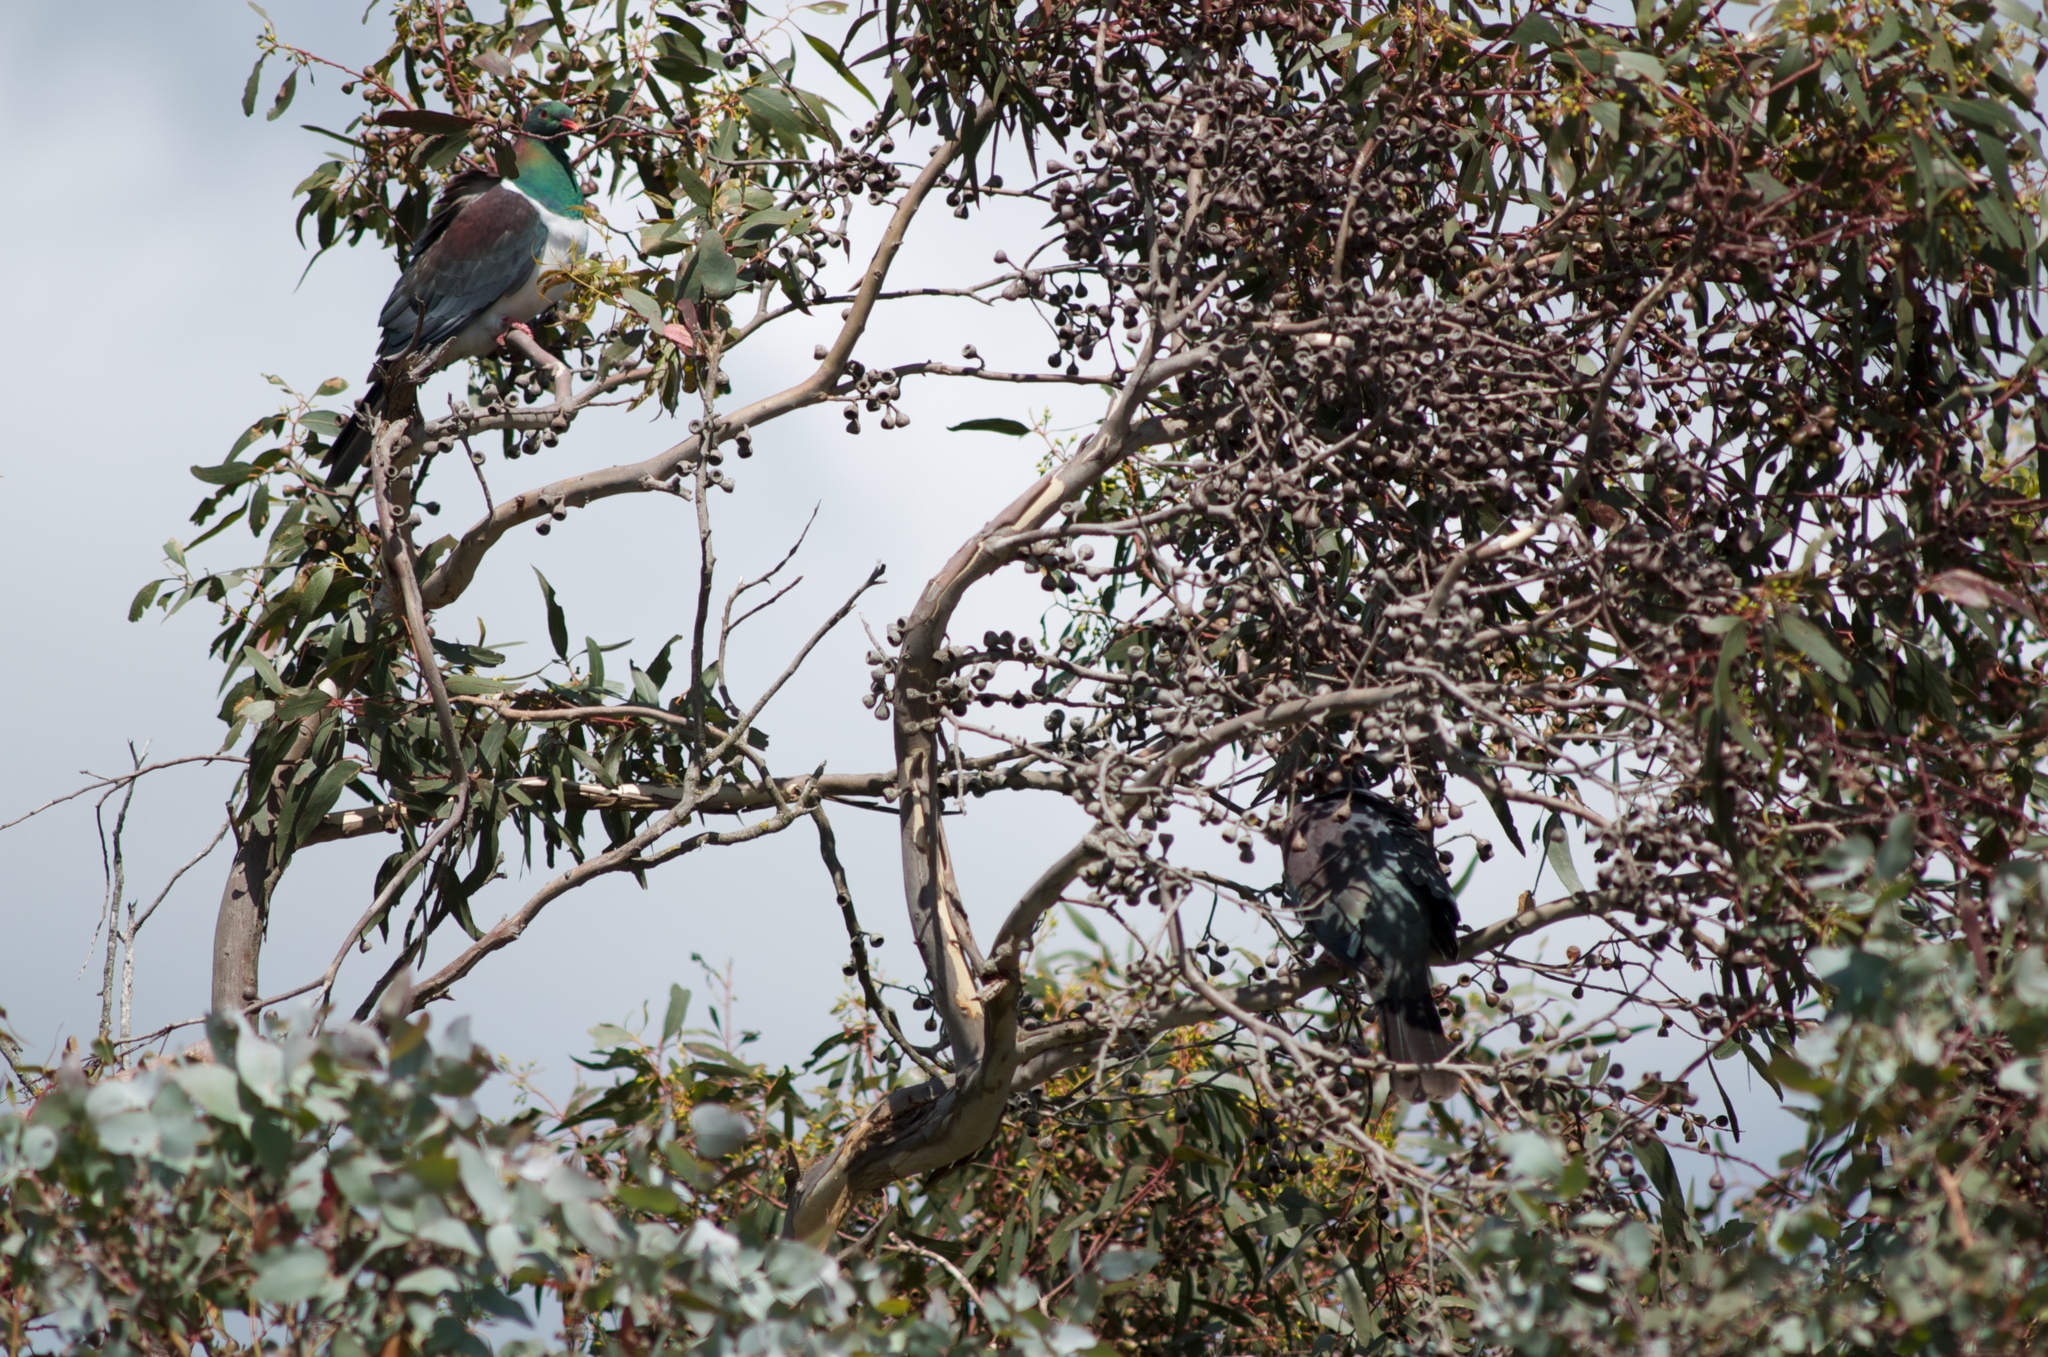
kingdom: Animalia
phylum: Chordata
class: Aves
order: Columbiformes
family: Columbidae
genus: Hemiphaga
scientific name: Hemiphaga novaeseelandiae
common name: New zealand pigeon
